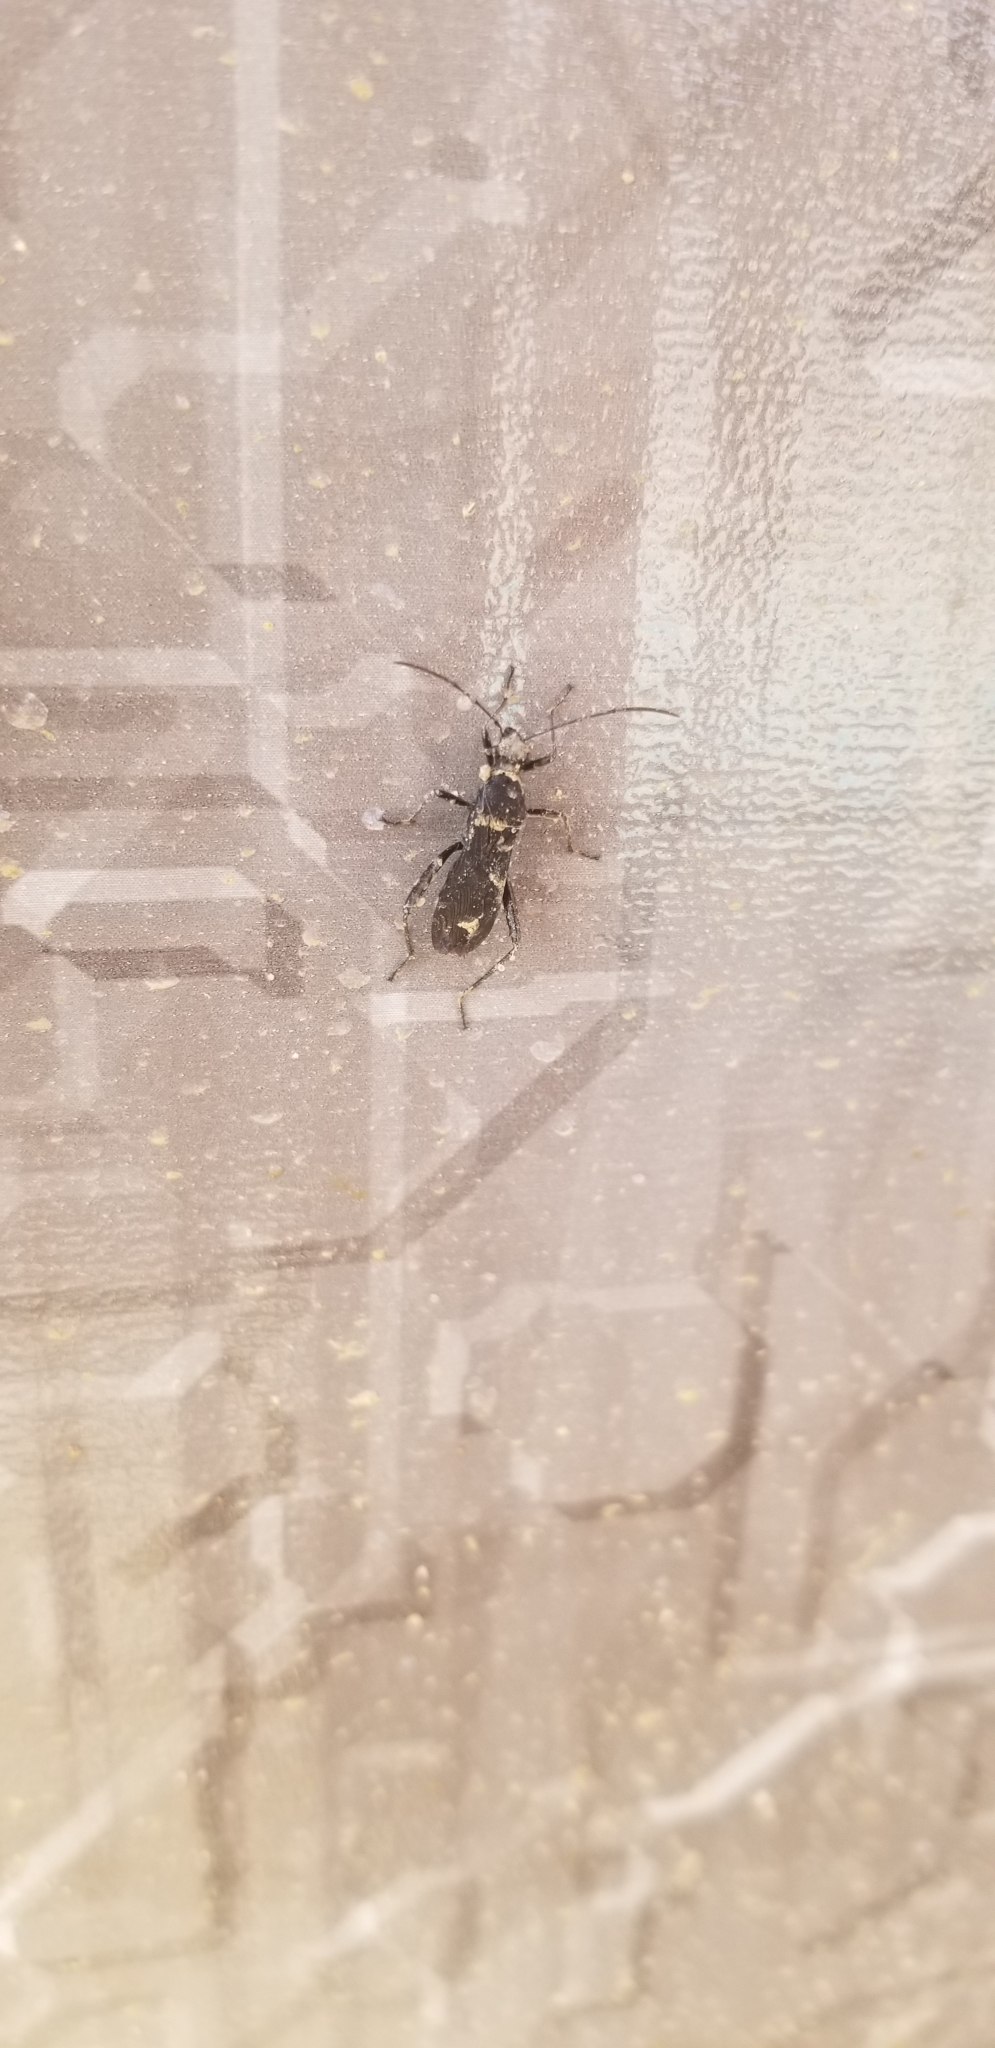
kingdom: Animalia
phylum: Arthropoda
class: Insecta
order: Coleoptera
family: Cerambycidae
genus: Xylotrechus
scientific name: Xylotrechus colonus
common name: Long-horned beetle
